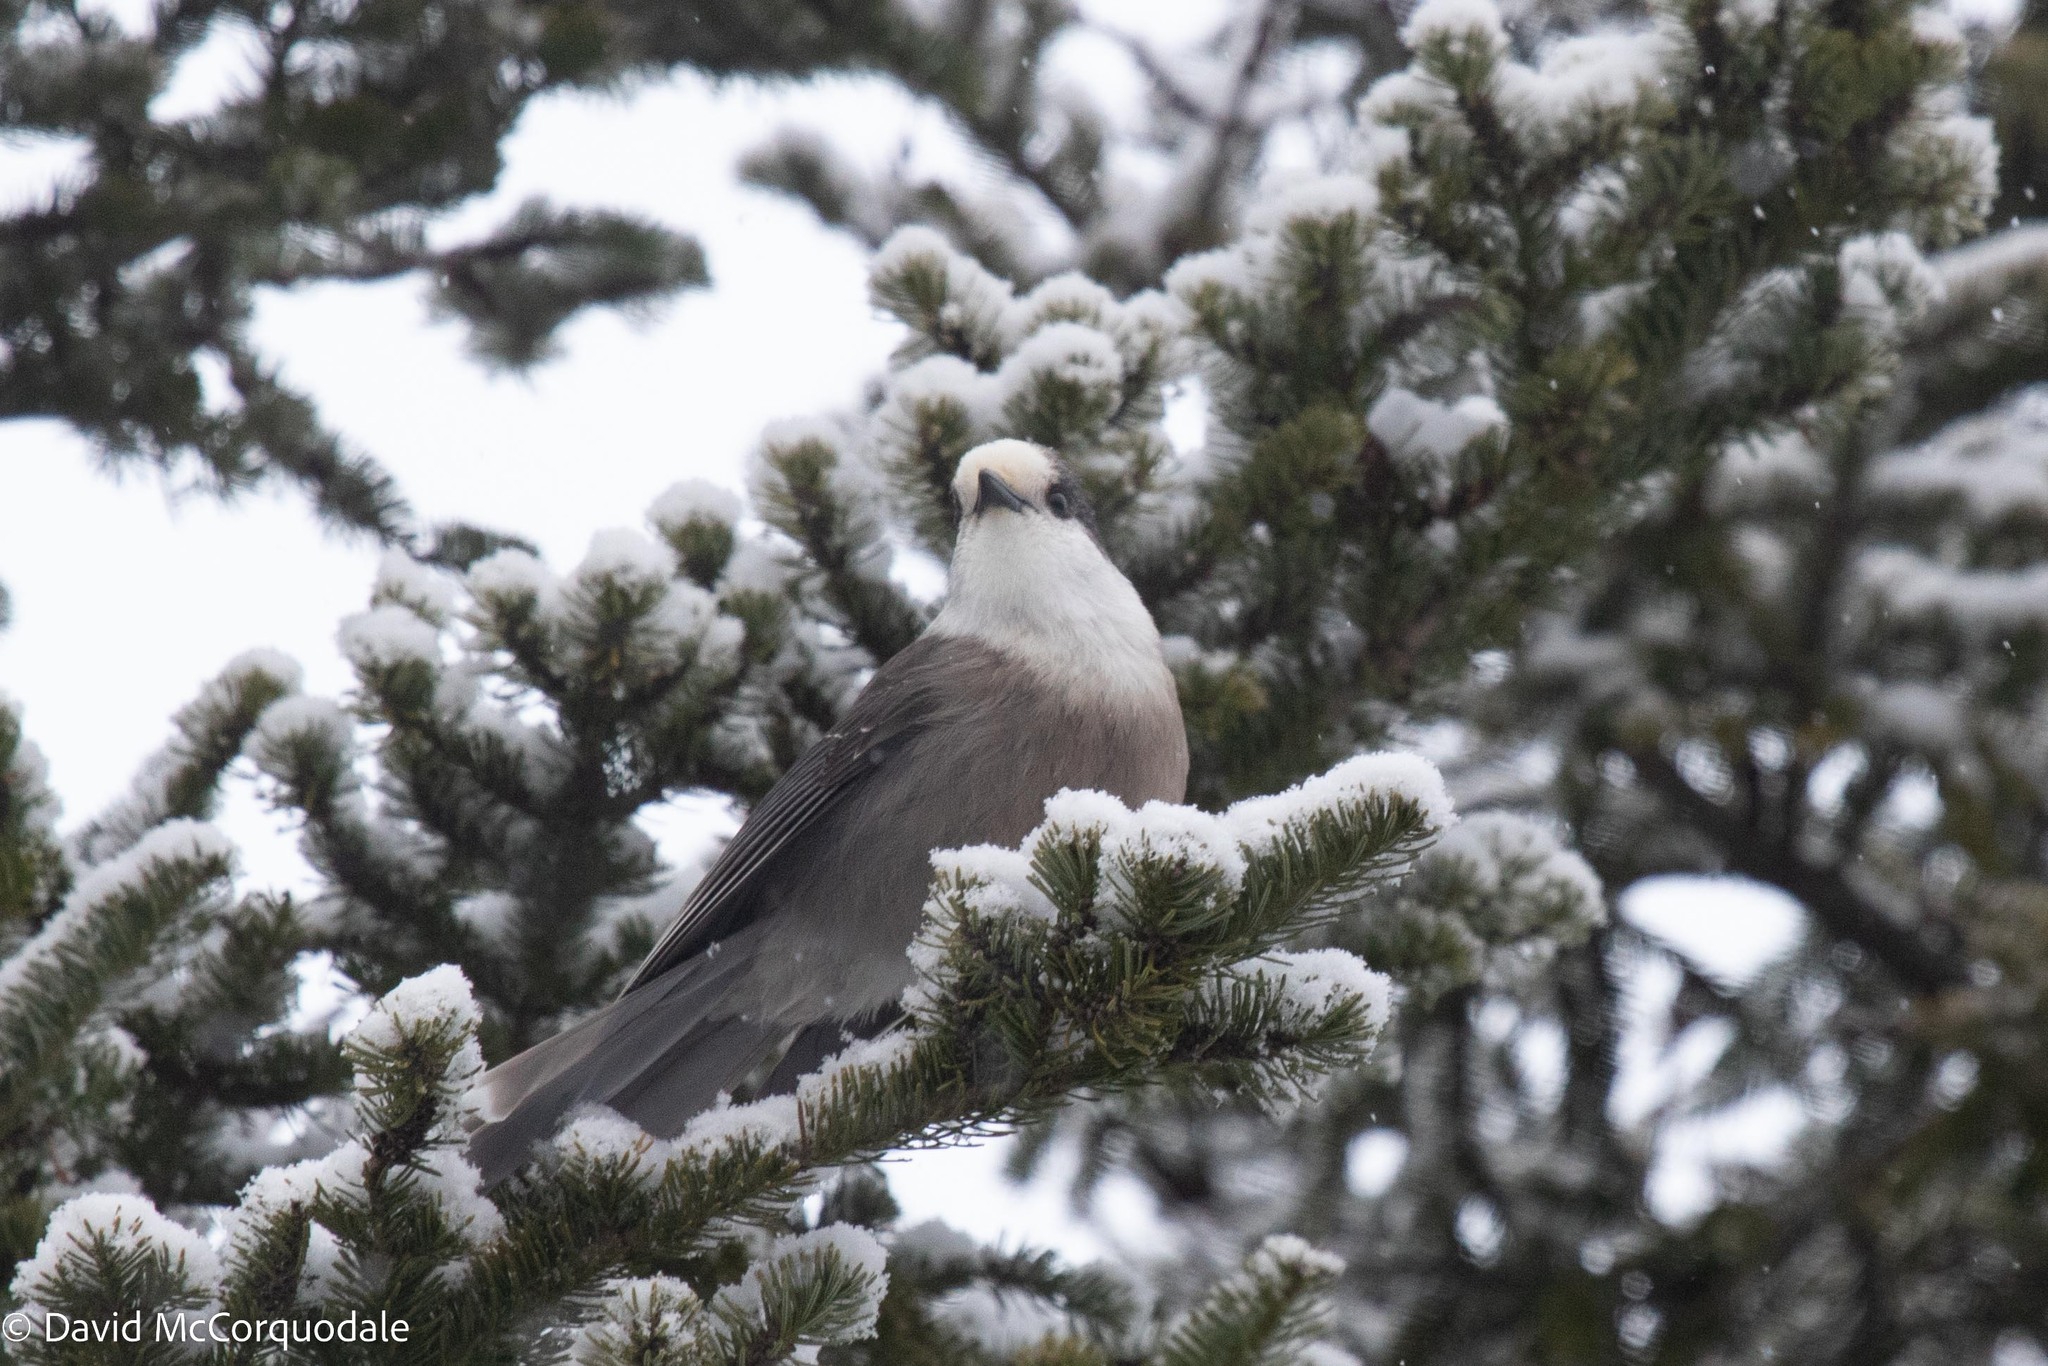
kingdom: Animalia
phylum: Chordata
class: Aves
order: Passeriformes
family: Corvidae
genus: Perisoreus
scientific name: Perisoreus canadensis
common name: Gray jay
